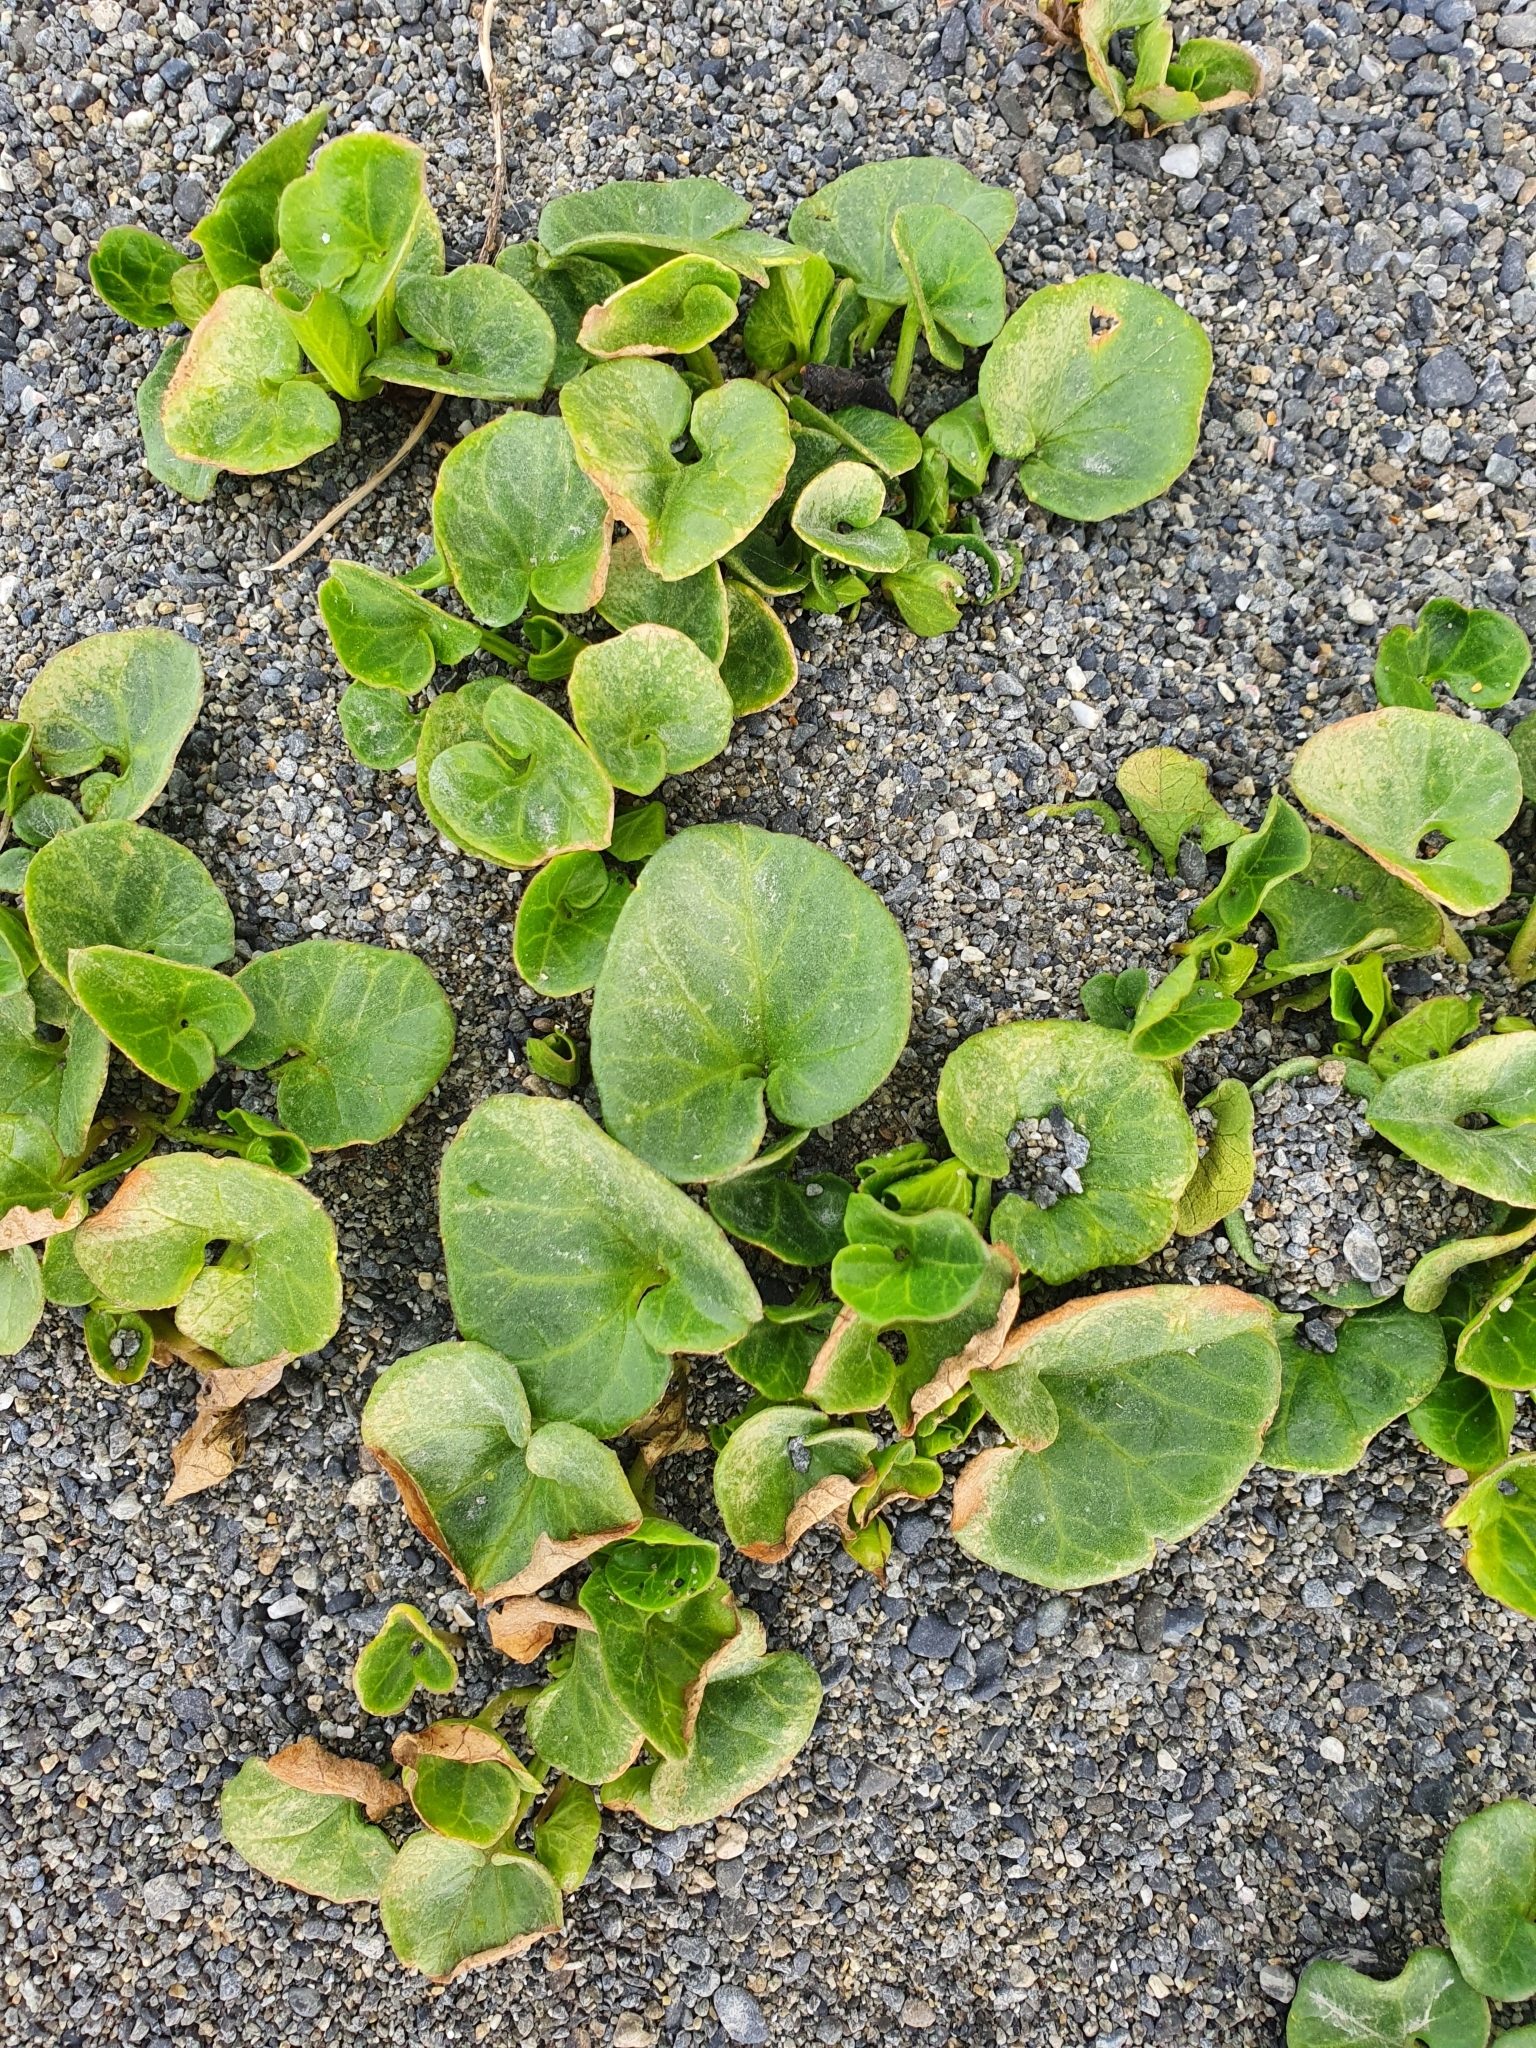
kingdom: Plantae
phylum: Tracheophyta
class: Magnoliopsida
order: Solanales
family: Convolvulaceae
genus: Calystegia
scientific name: Calystegia soldanella
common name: Sea bindweed
